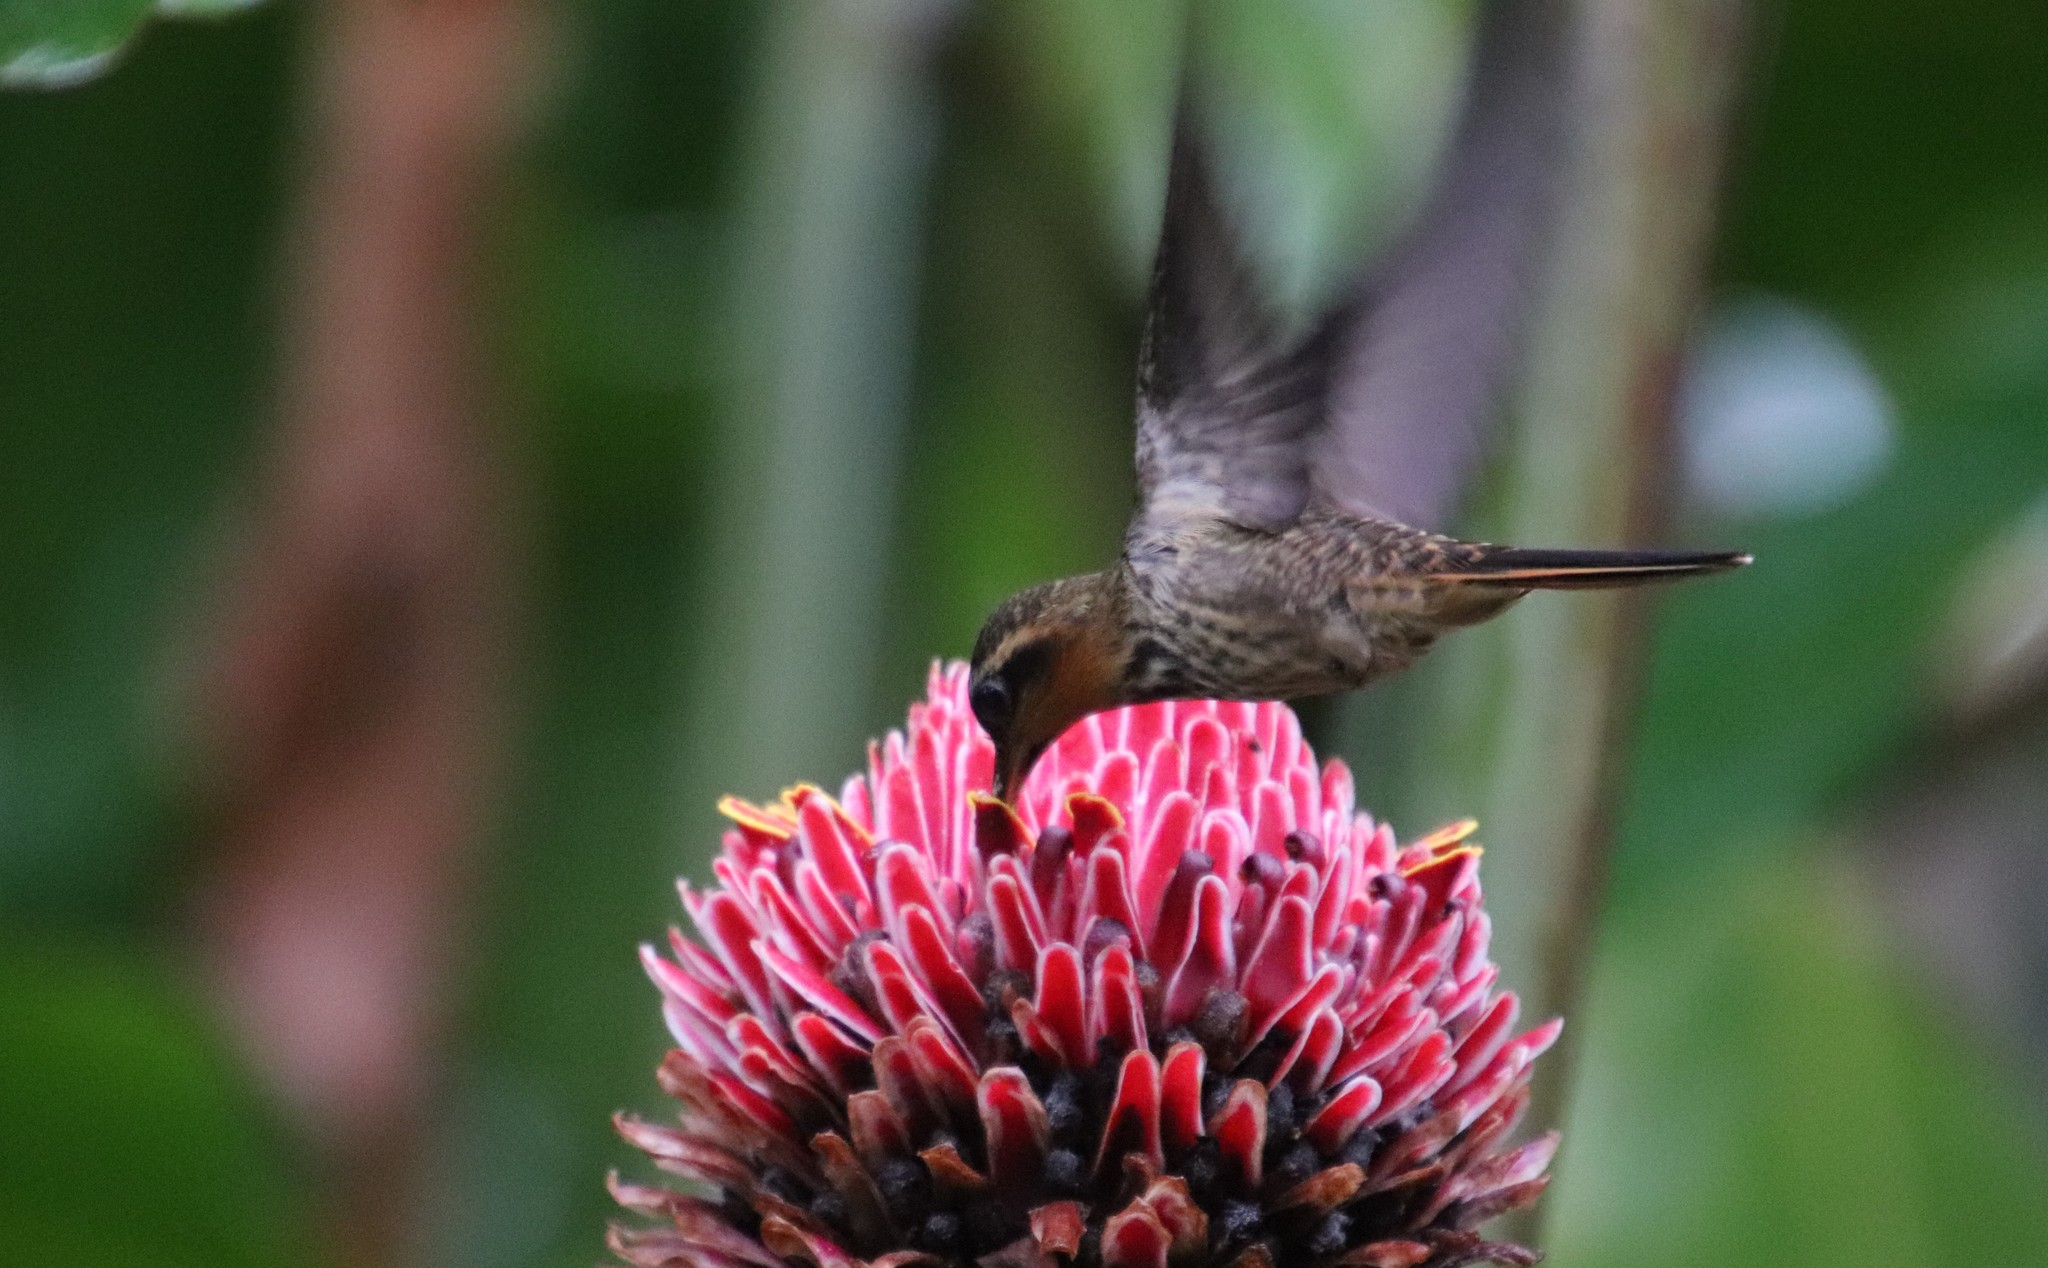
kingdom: Animalia
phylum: Chordata
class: Aves
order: Apodiformes
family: Trochilidae
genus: Ramphodon
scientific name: Ramphodon naevius
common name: Saw-billed hermit
